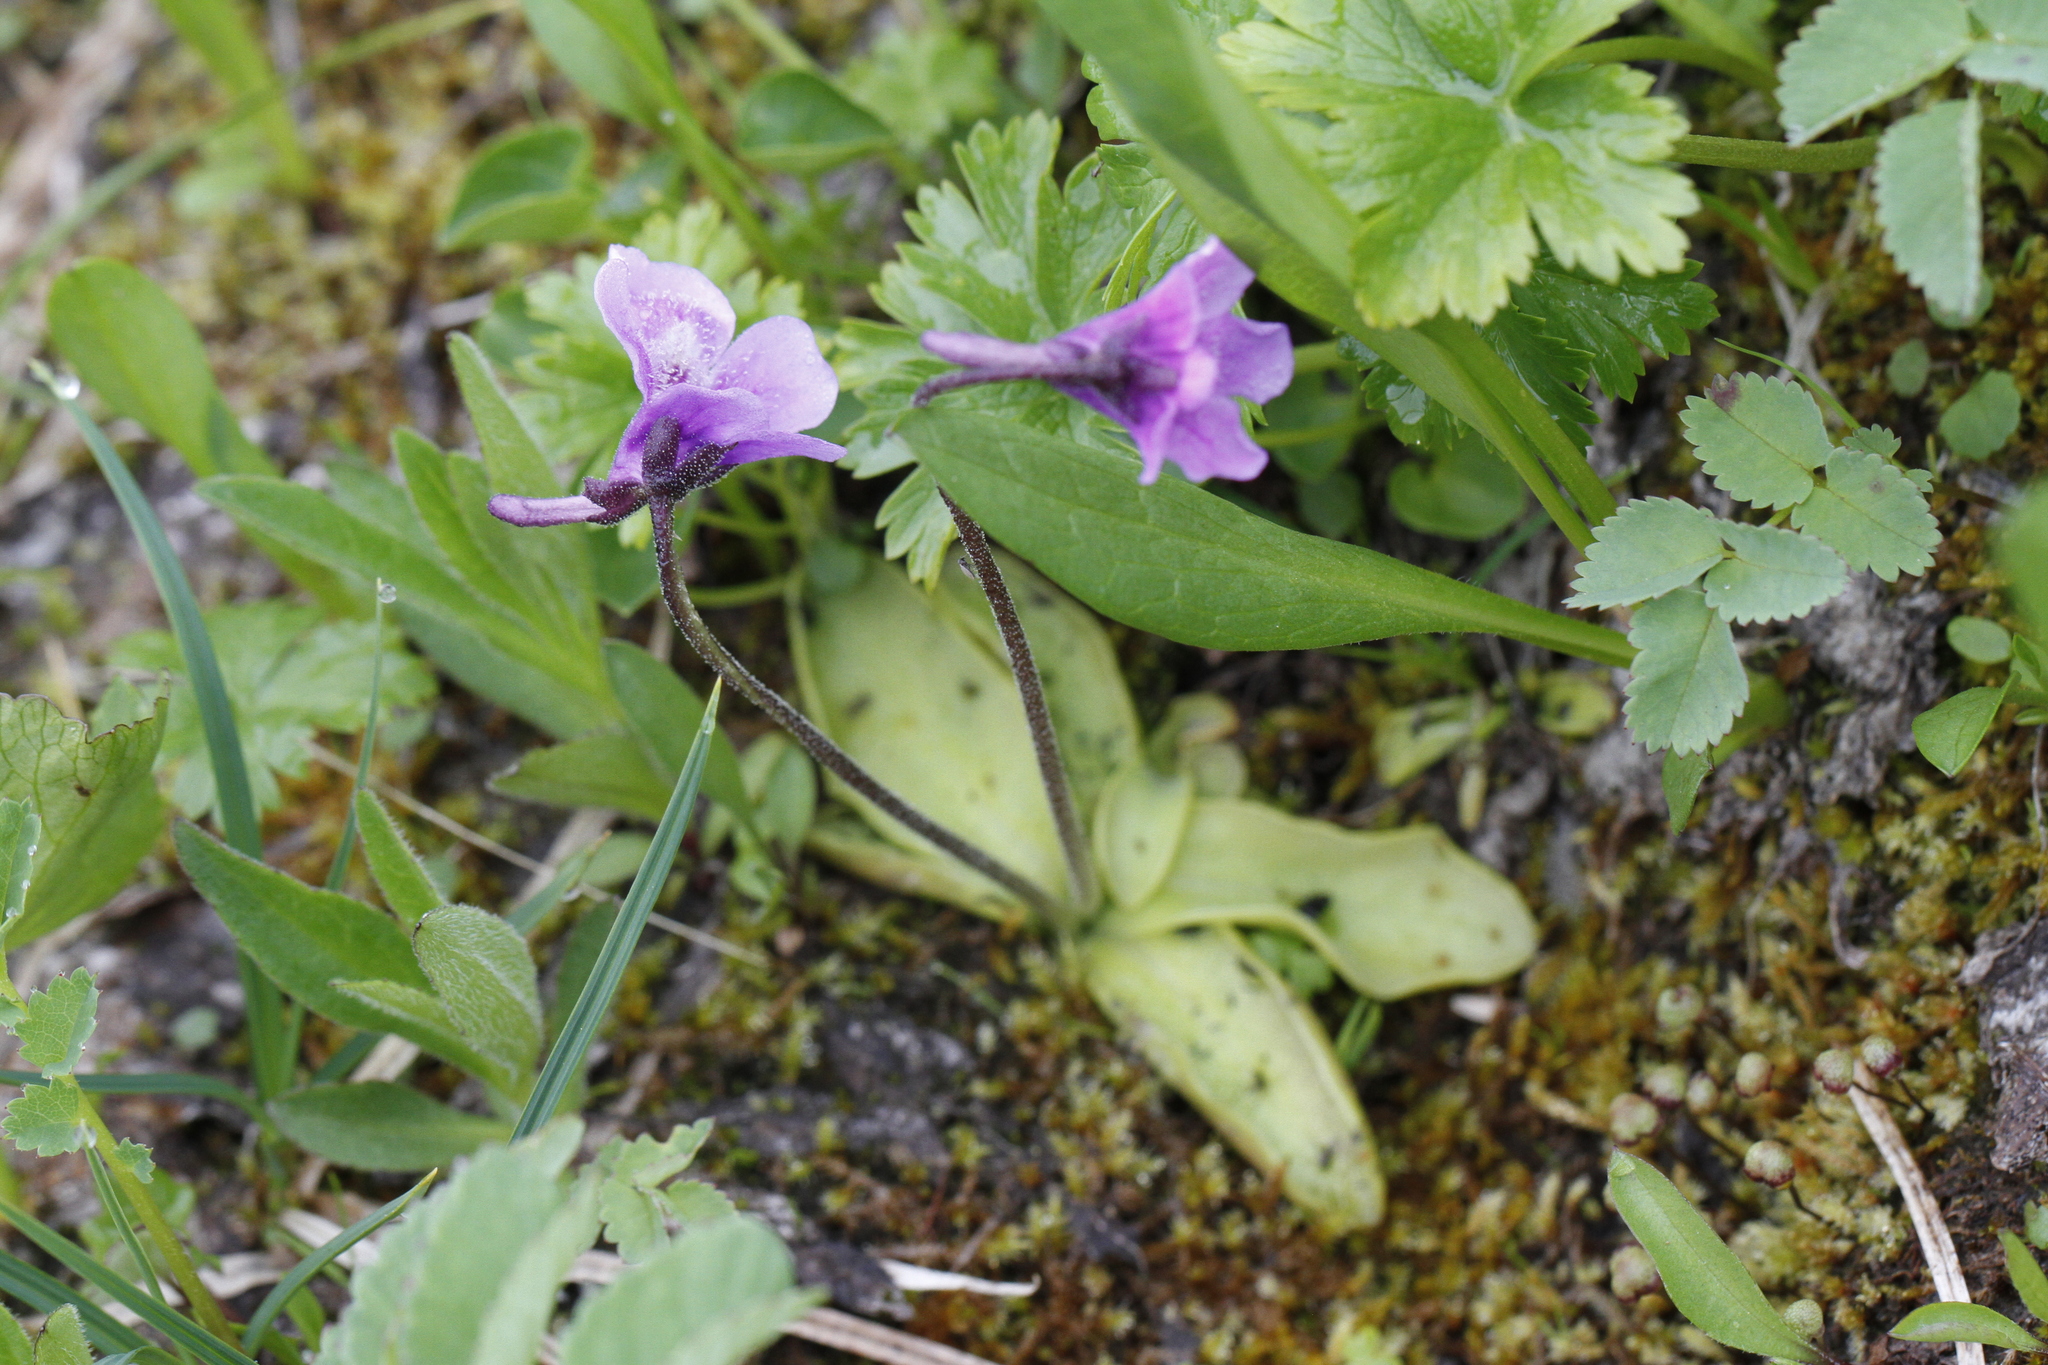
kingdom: Plantae
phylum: Tracheophyta
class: Magnoliopsida
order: Lamiales
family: Lentibulariaceae
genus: Pinguicula
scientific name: Pinguicula vulgaris
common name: Common butterwort
